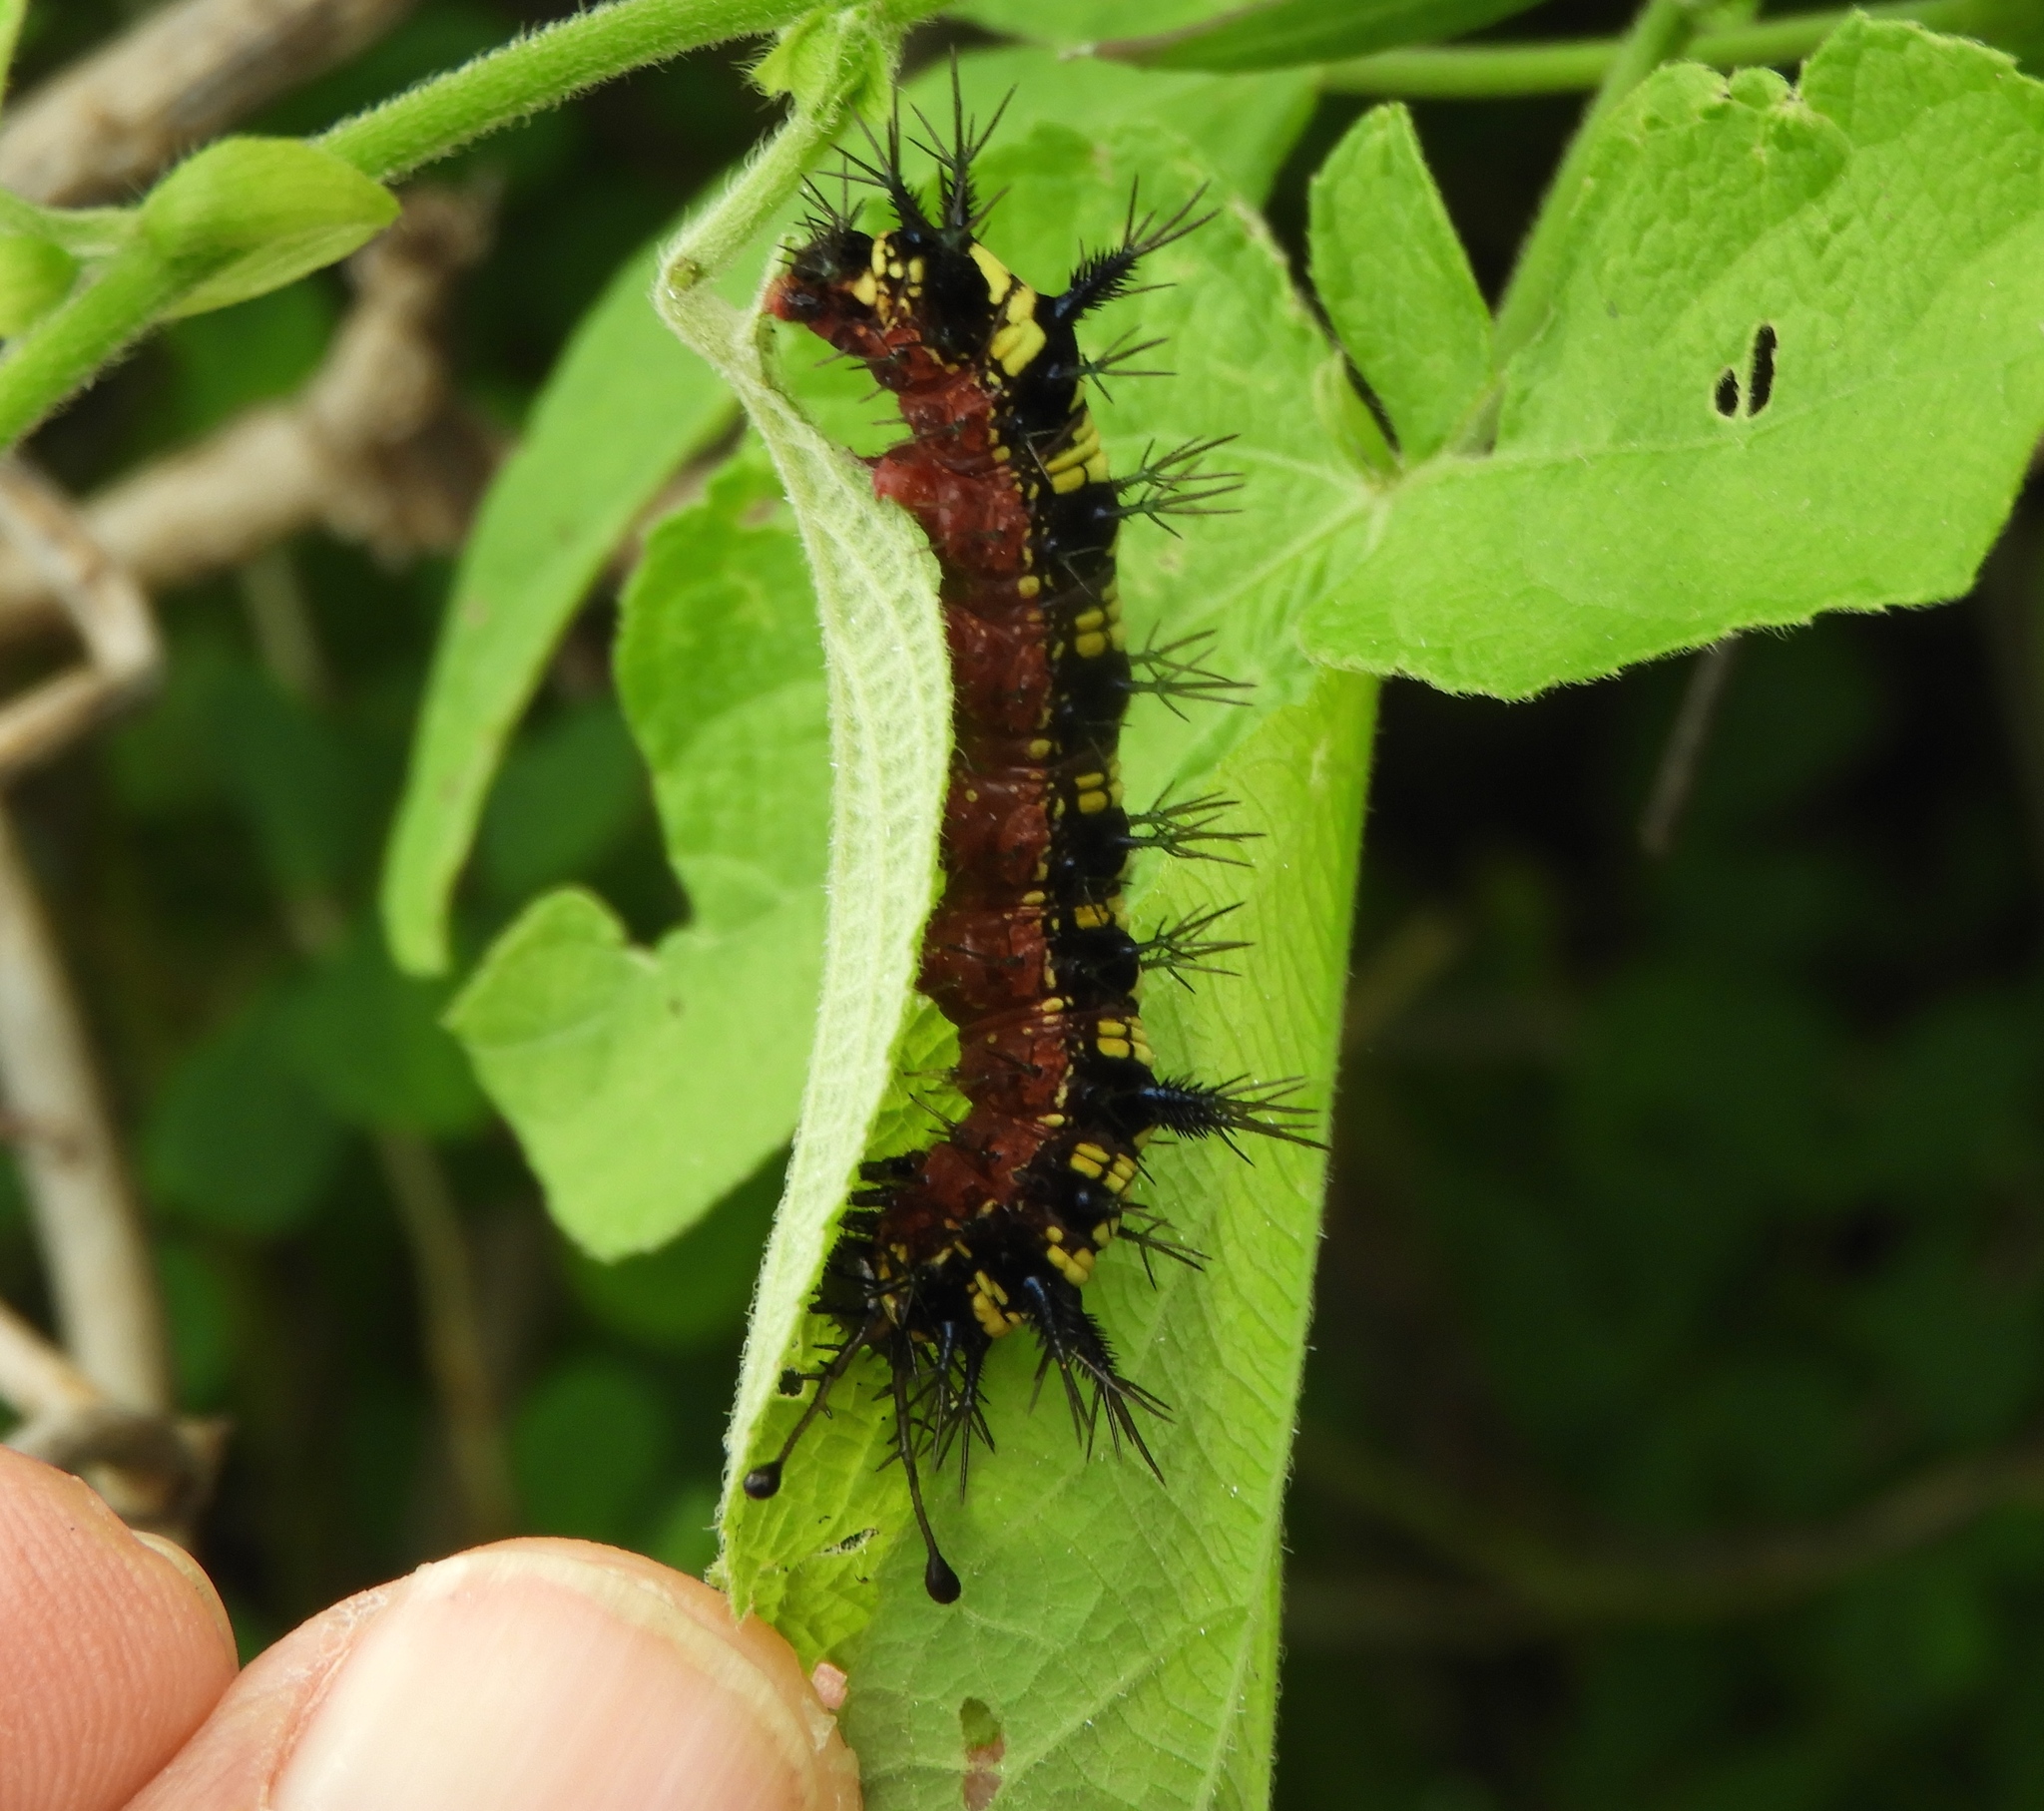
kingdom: Animalia
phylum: Arthropoda
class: Insecta
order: Lepidoptera
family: Nymphalidae
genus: Hamadryas
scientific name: Hamadryas guatemalena
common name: Guatemalan cracker
